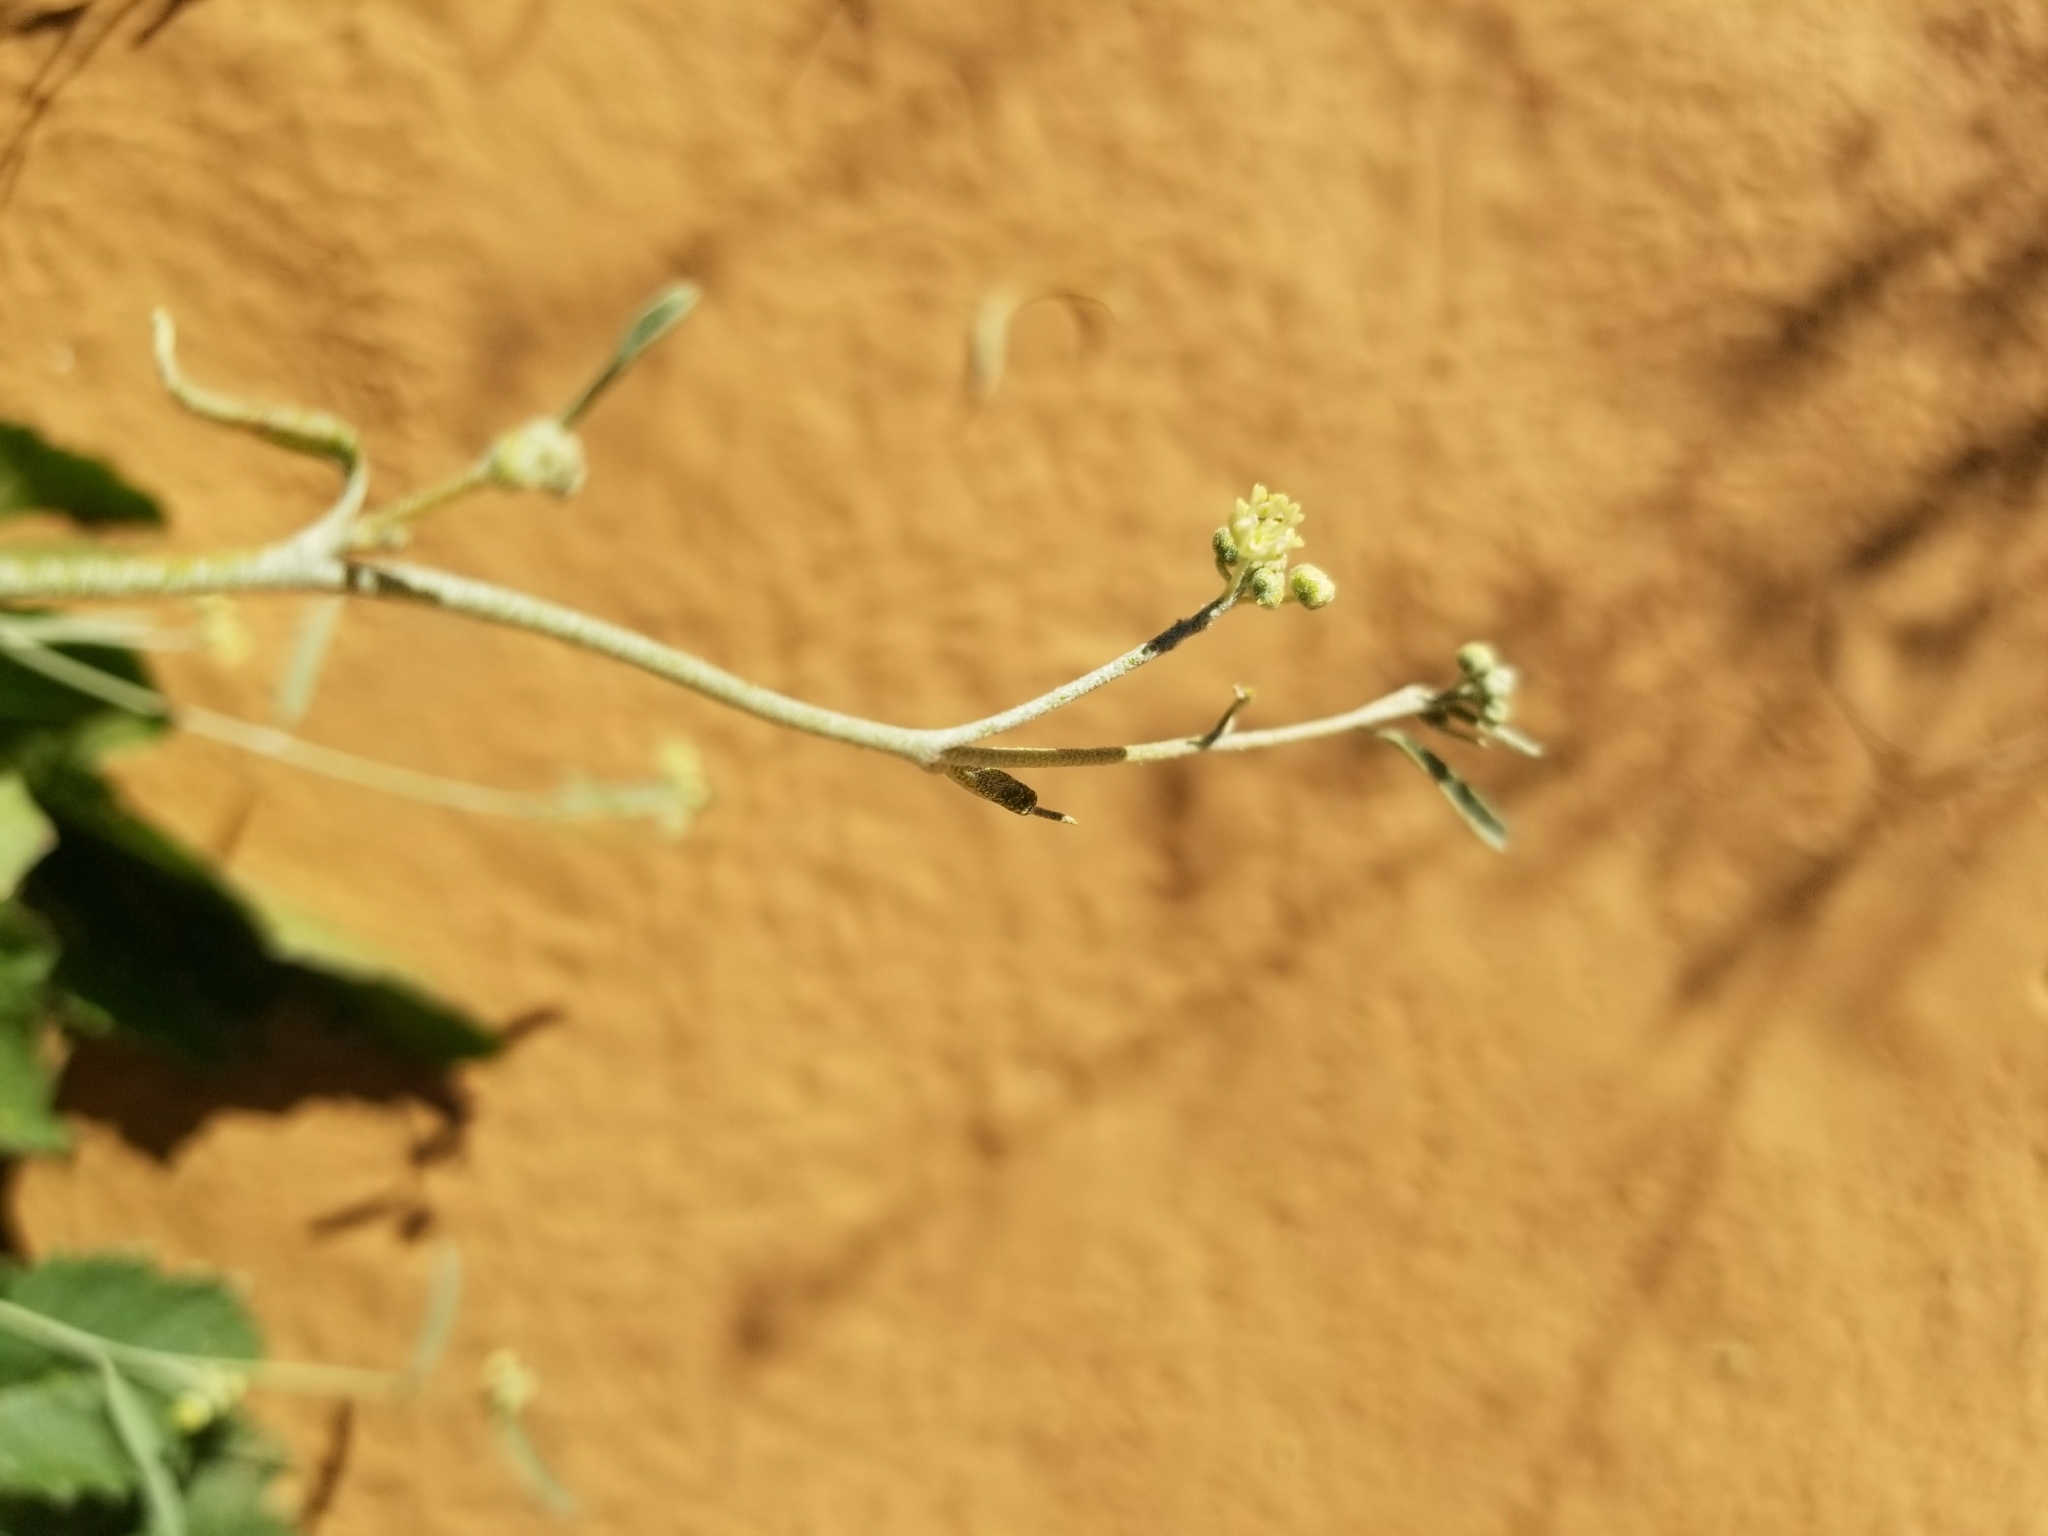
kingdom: Plantae
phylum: Tracheophyta
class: Magnoliopsida
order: Malpighiales
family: Euphorbiaceae
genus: Croton
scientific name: Croton wigginsii
